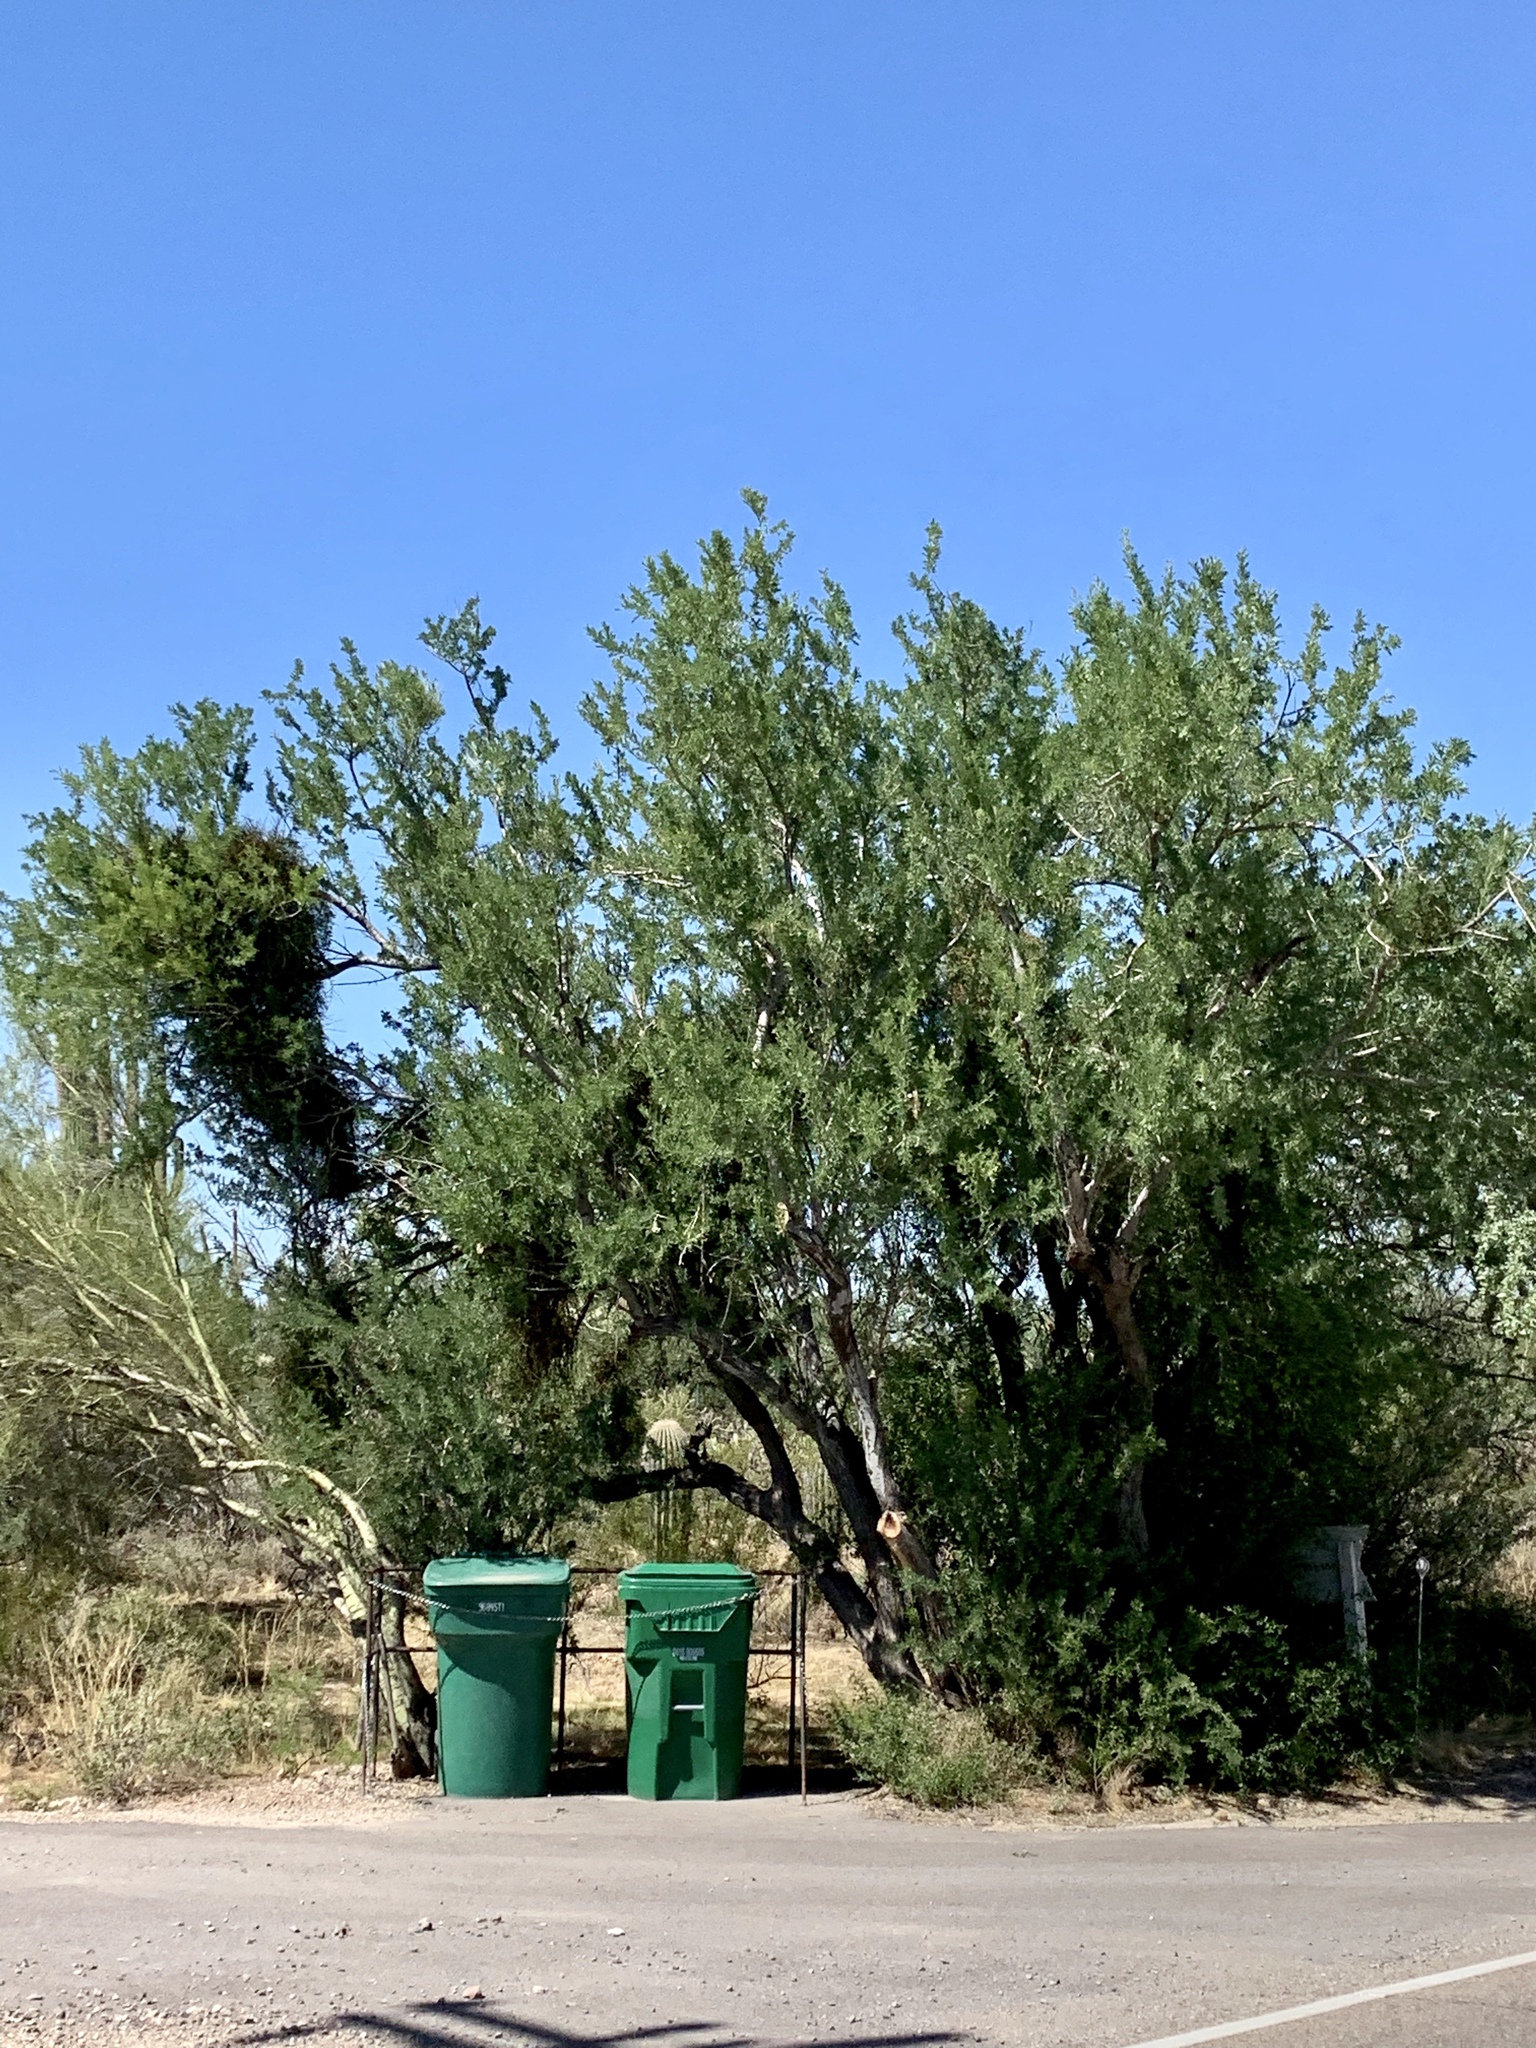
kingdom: Plantae
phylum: Tracheophyta
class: Magnoliopsida
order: Fabales
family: Fabaceae
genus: Olneya
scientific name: Olneya tesota
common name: Desert ironwood
